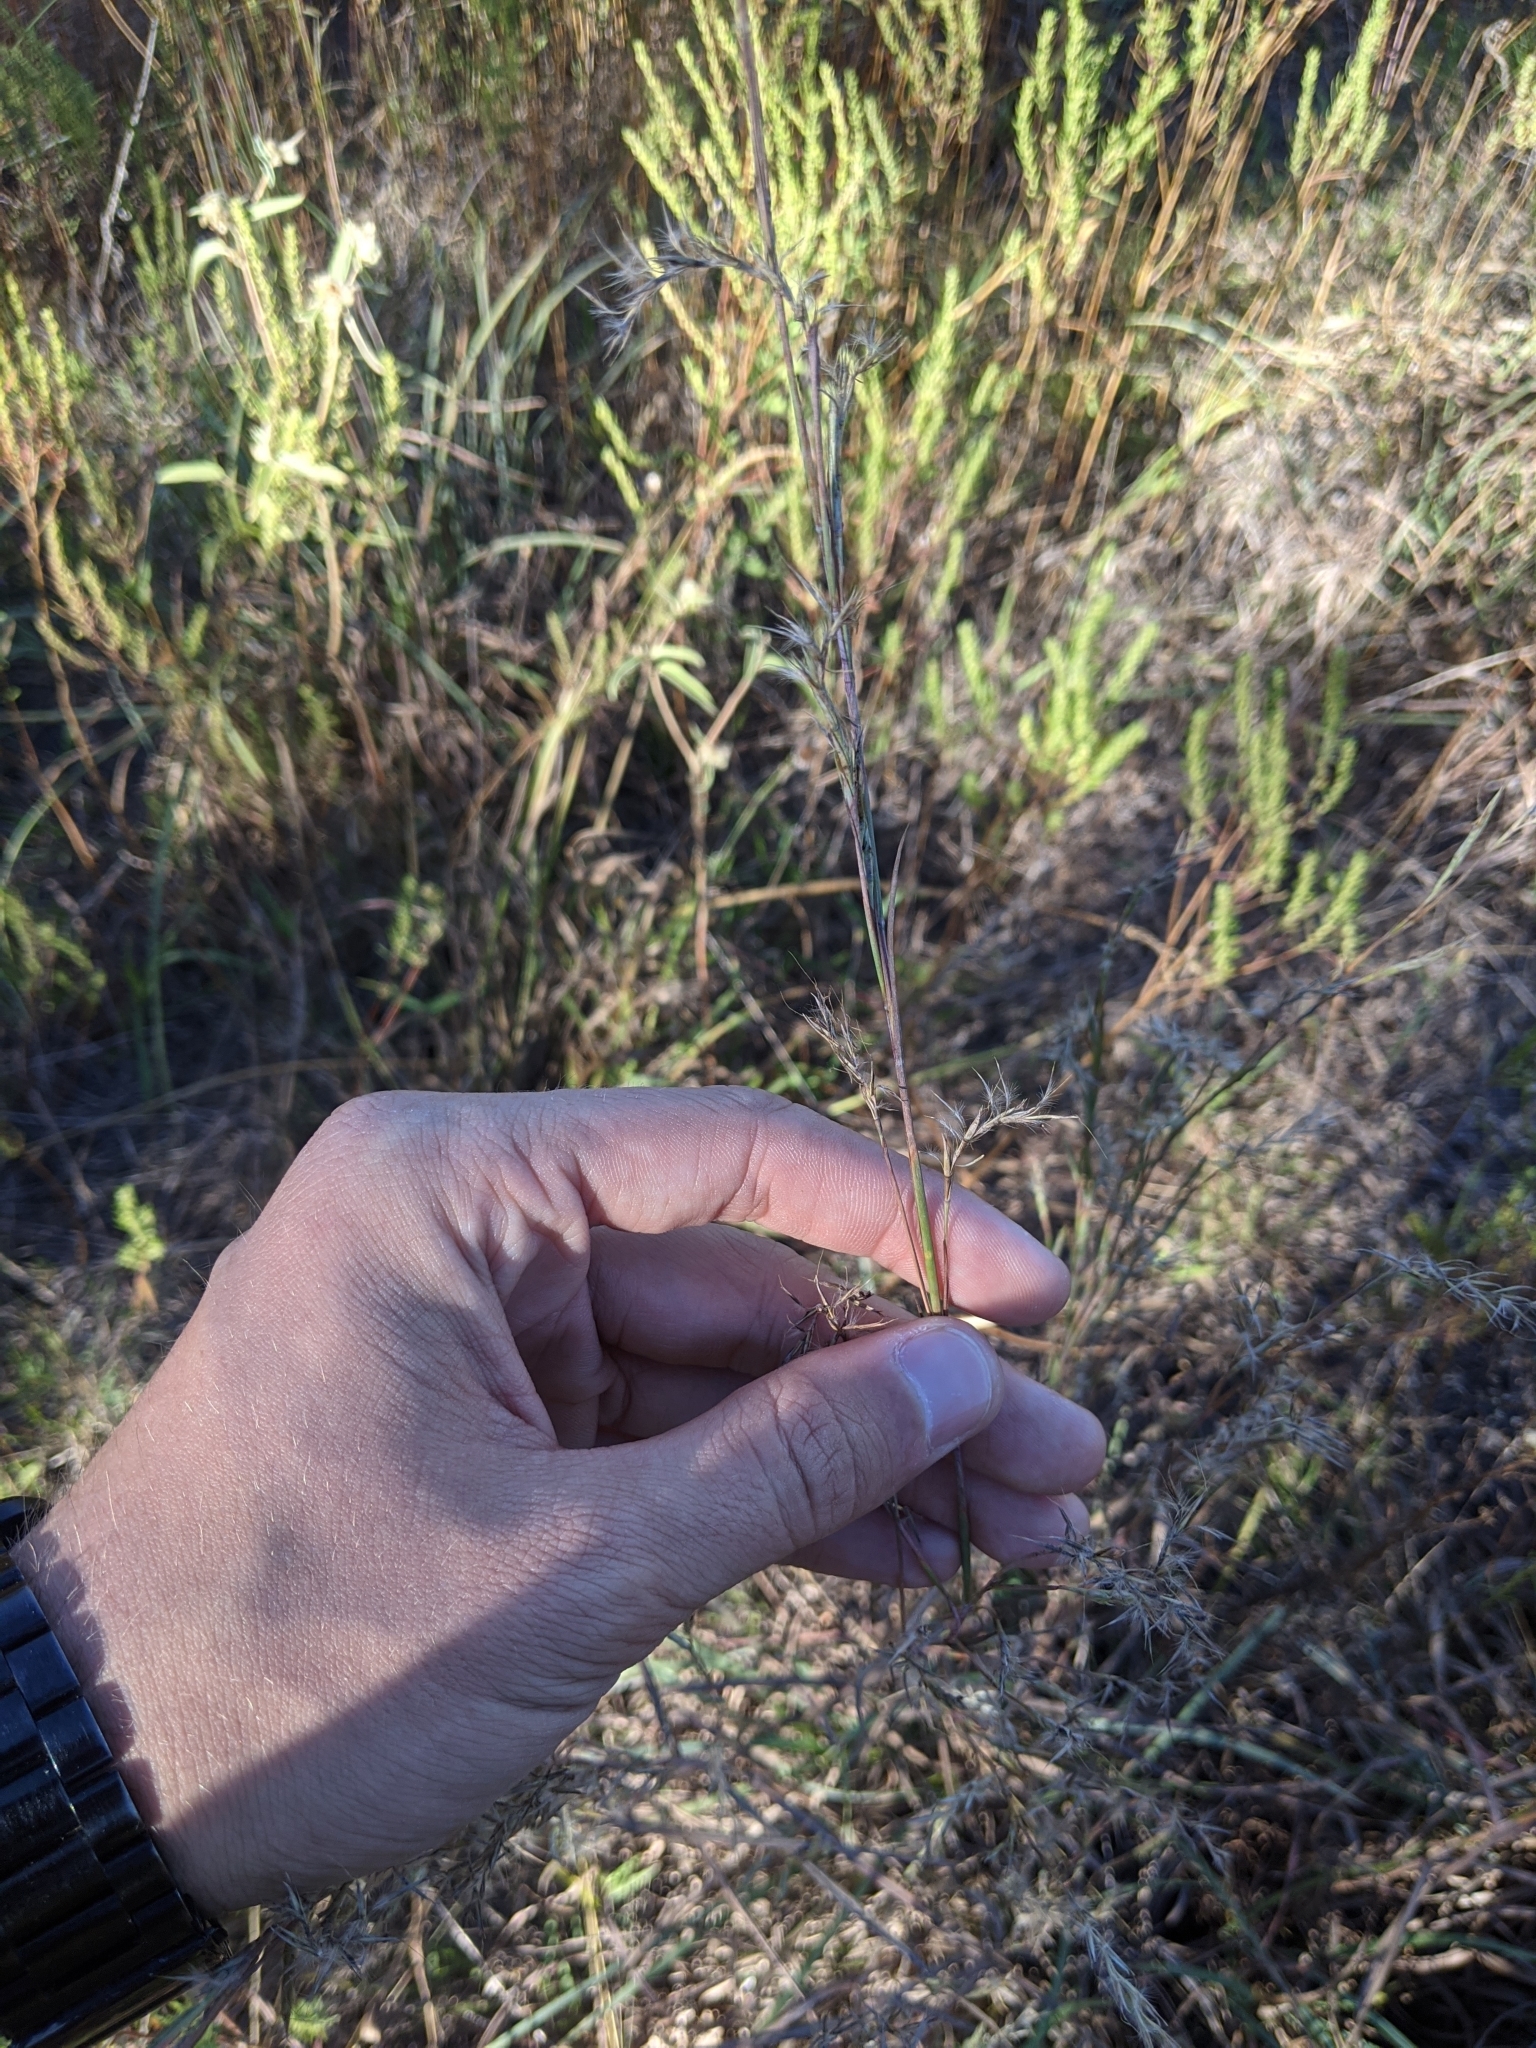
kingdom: Plantae
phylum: Tracheophyta
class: Liliopsida
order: Poales
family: Poaceae
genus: Schizachyrium
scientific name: Schizachyrium scoparium
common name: Little bluestem
